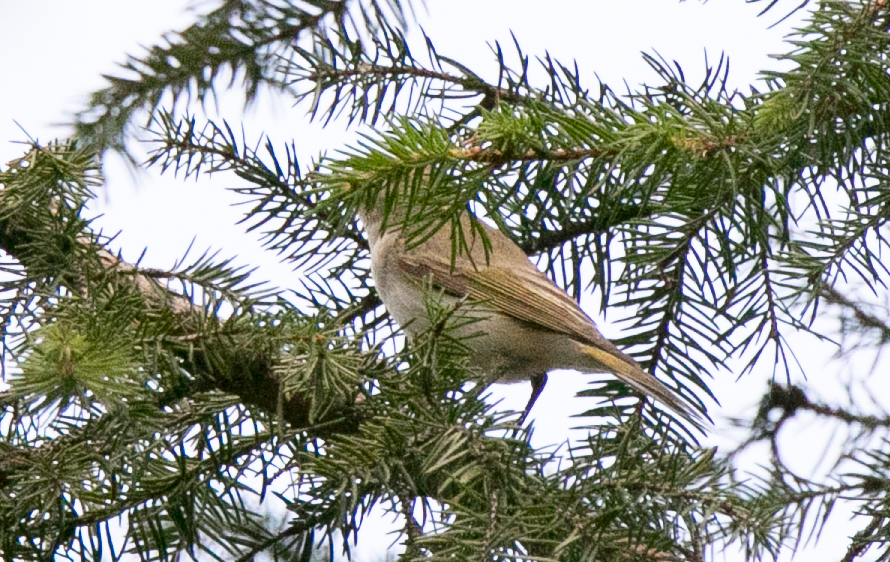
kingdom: Animalia
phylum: Chordata
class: Aves
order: Passeriformes
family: Phylloscopidae
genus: Phylloscopus
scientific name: Phylloscopus bonelli
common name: Western bonelli's warbler
